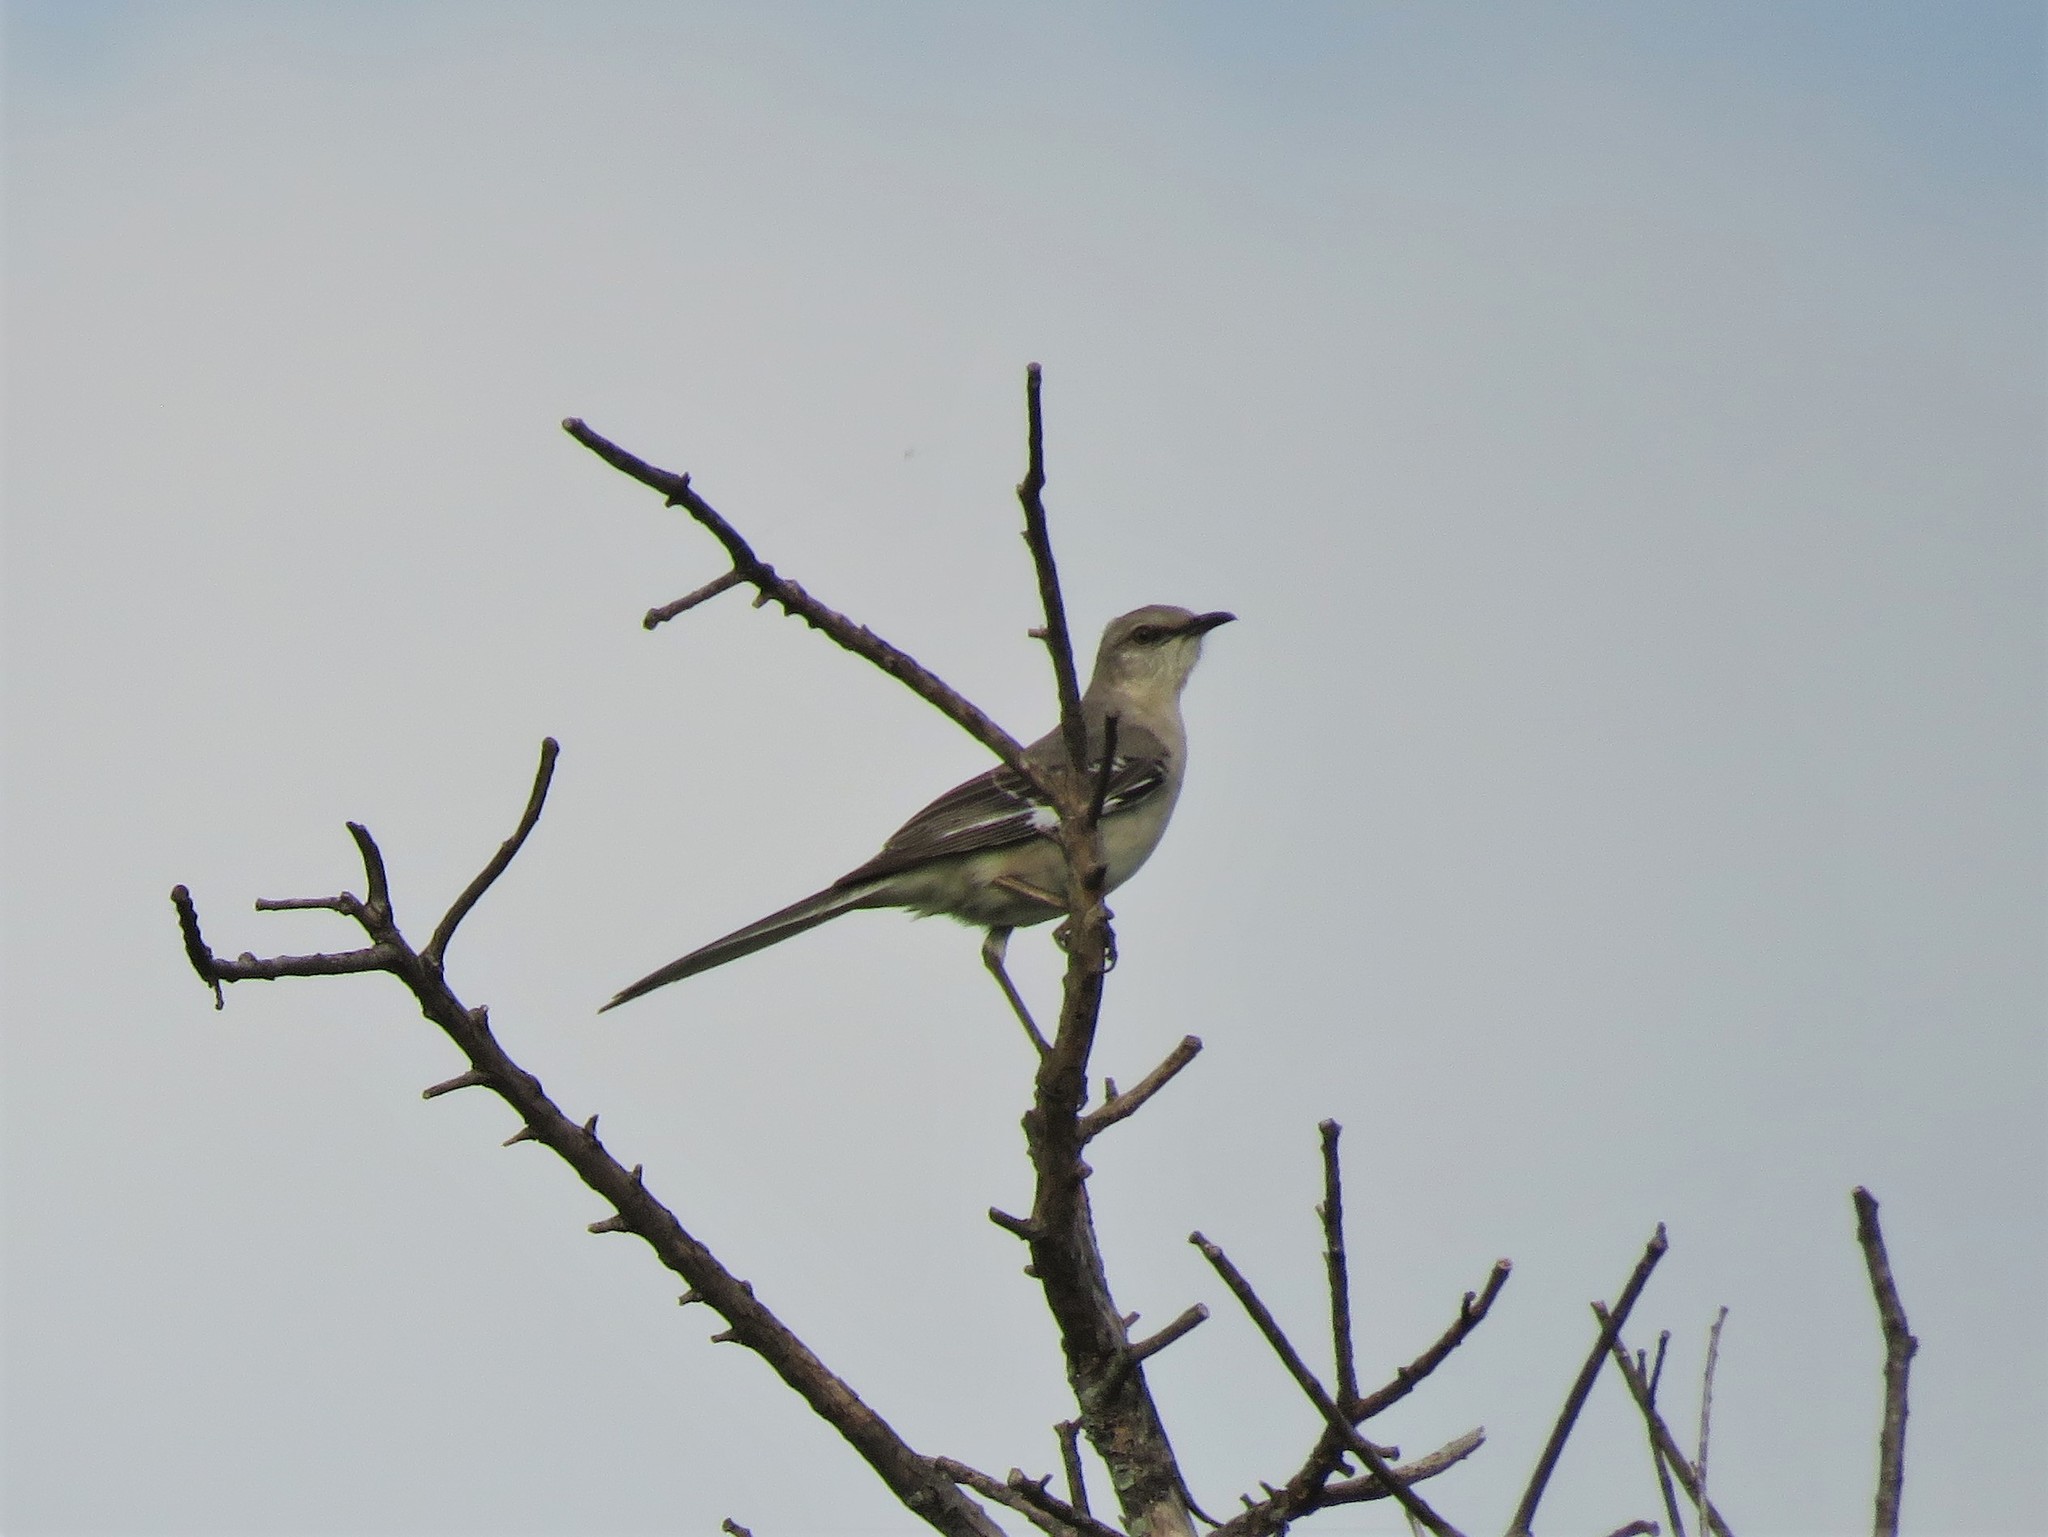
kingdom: Animalia
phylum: Chordata
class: Aves
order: Passeriformes
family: Mimidae
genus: Mimus
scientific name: Mimus polyglottos
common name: Northern mockingbird
